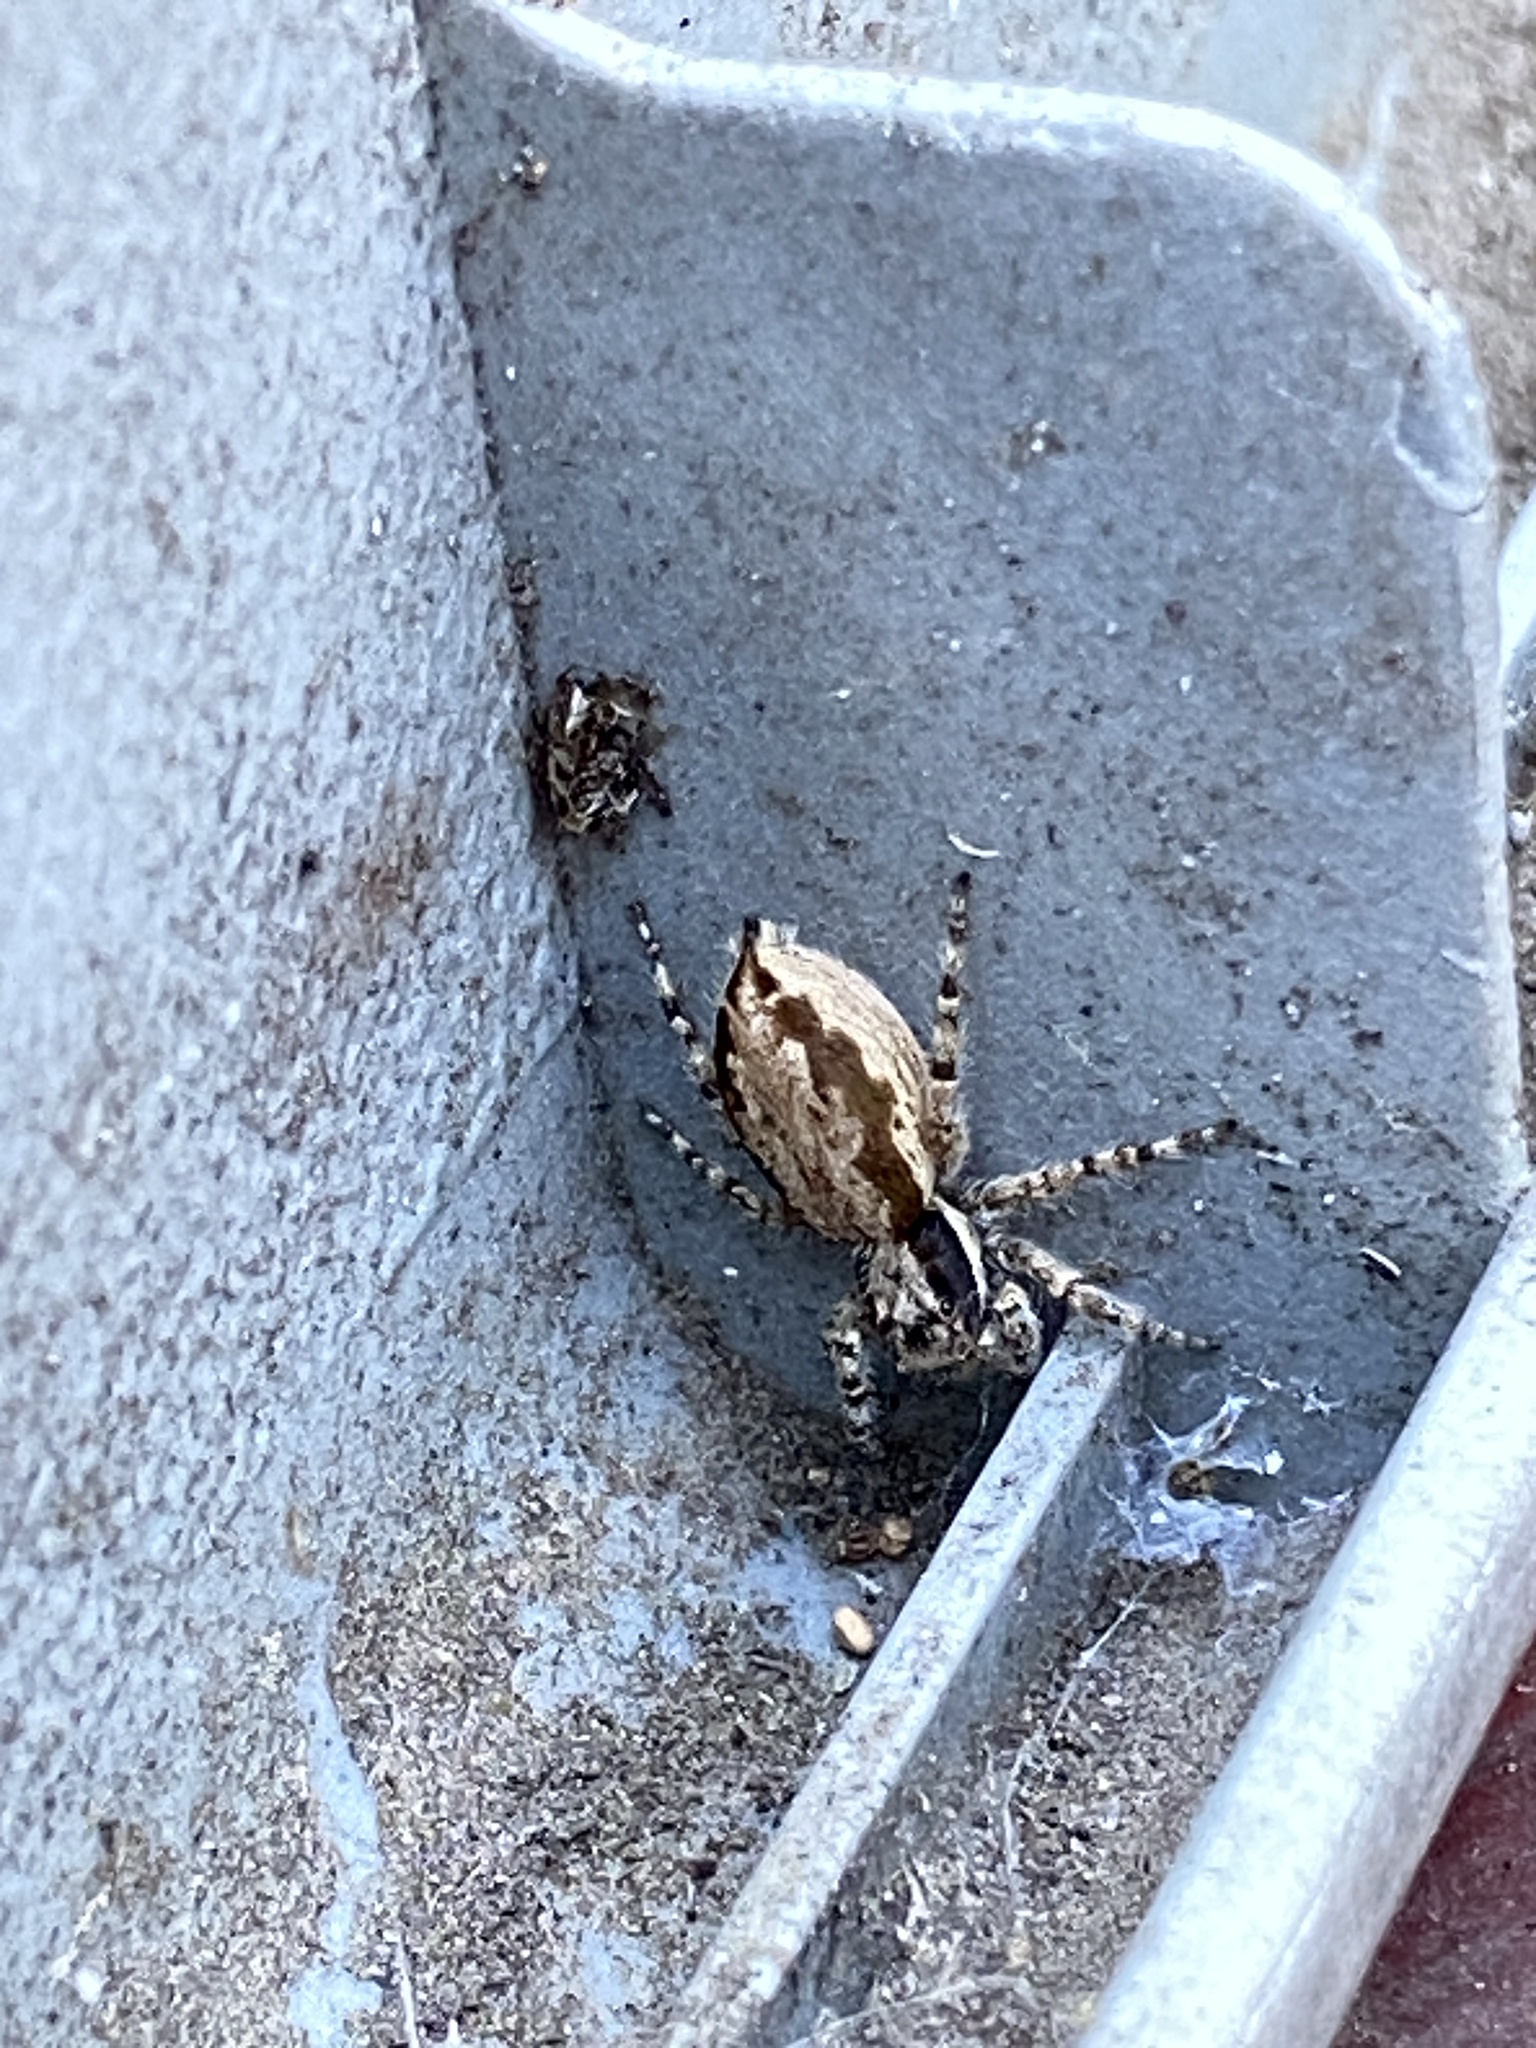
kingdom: Animalia
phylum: Arthropoda
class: Arachnida
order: Araneae
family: Salticidae
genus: Menemerus
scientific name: Menemerus bivittatus
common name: Gray wall jumper
